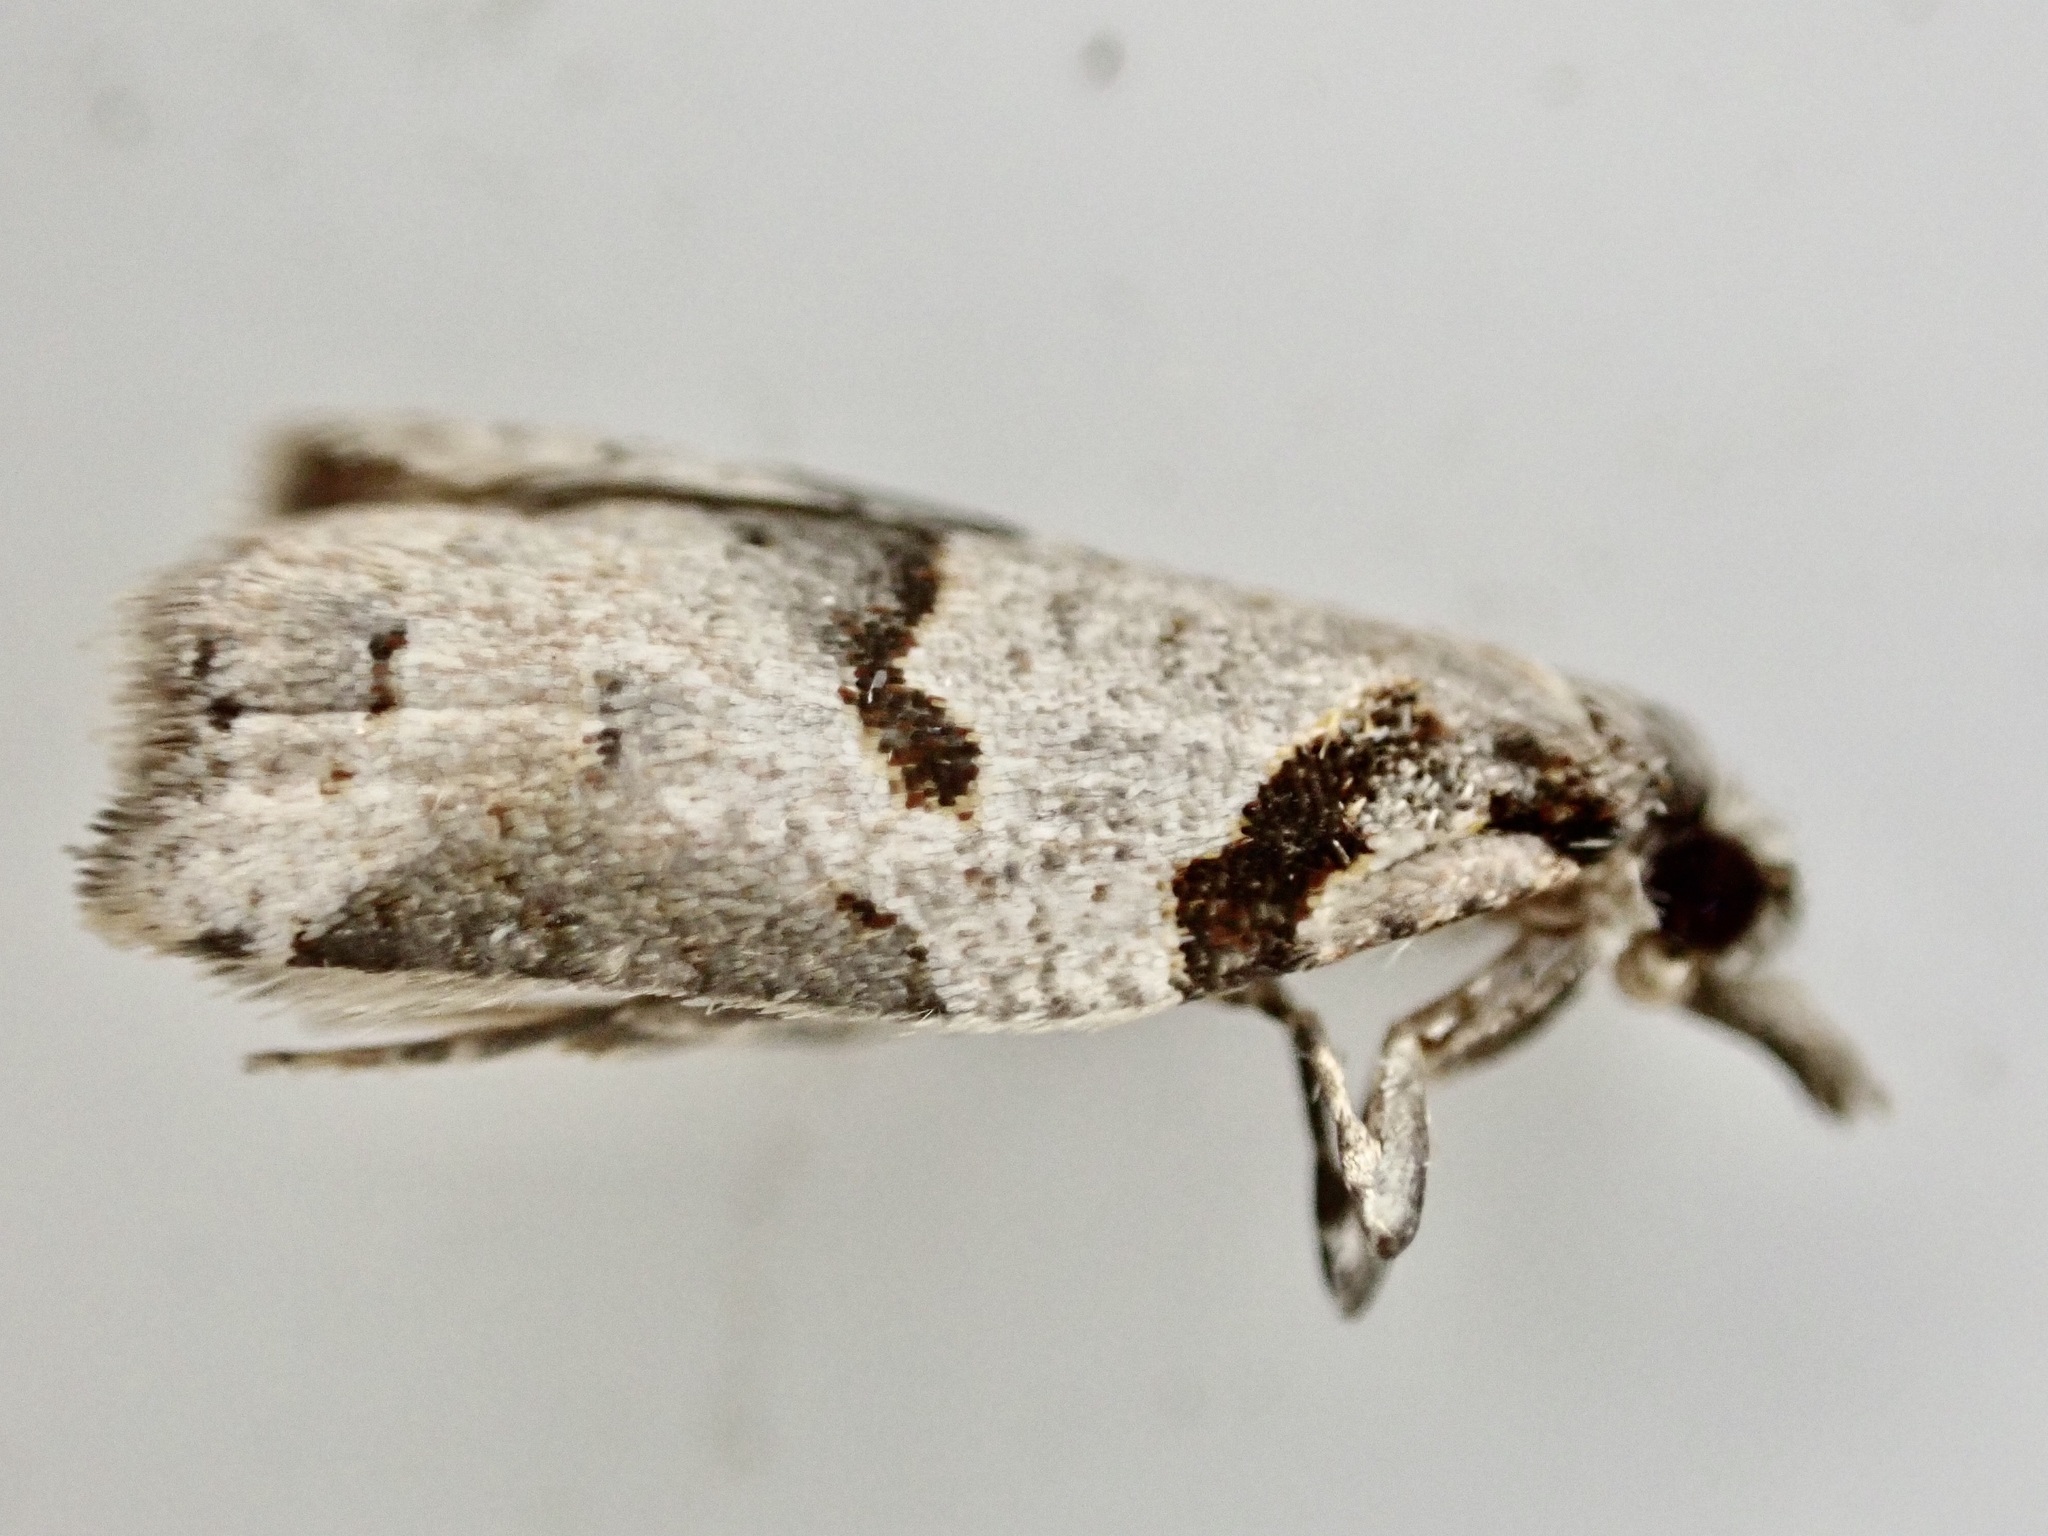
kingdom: Animalia
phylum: Arthropoda
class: Insecta
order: Lepidoptera
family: Tortricidae
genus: Harmologa
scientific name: Harmologa amplexana
